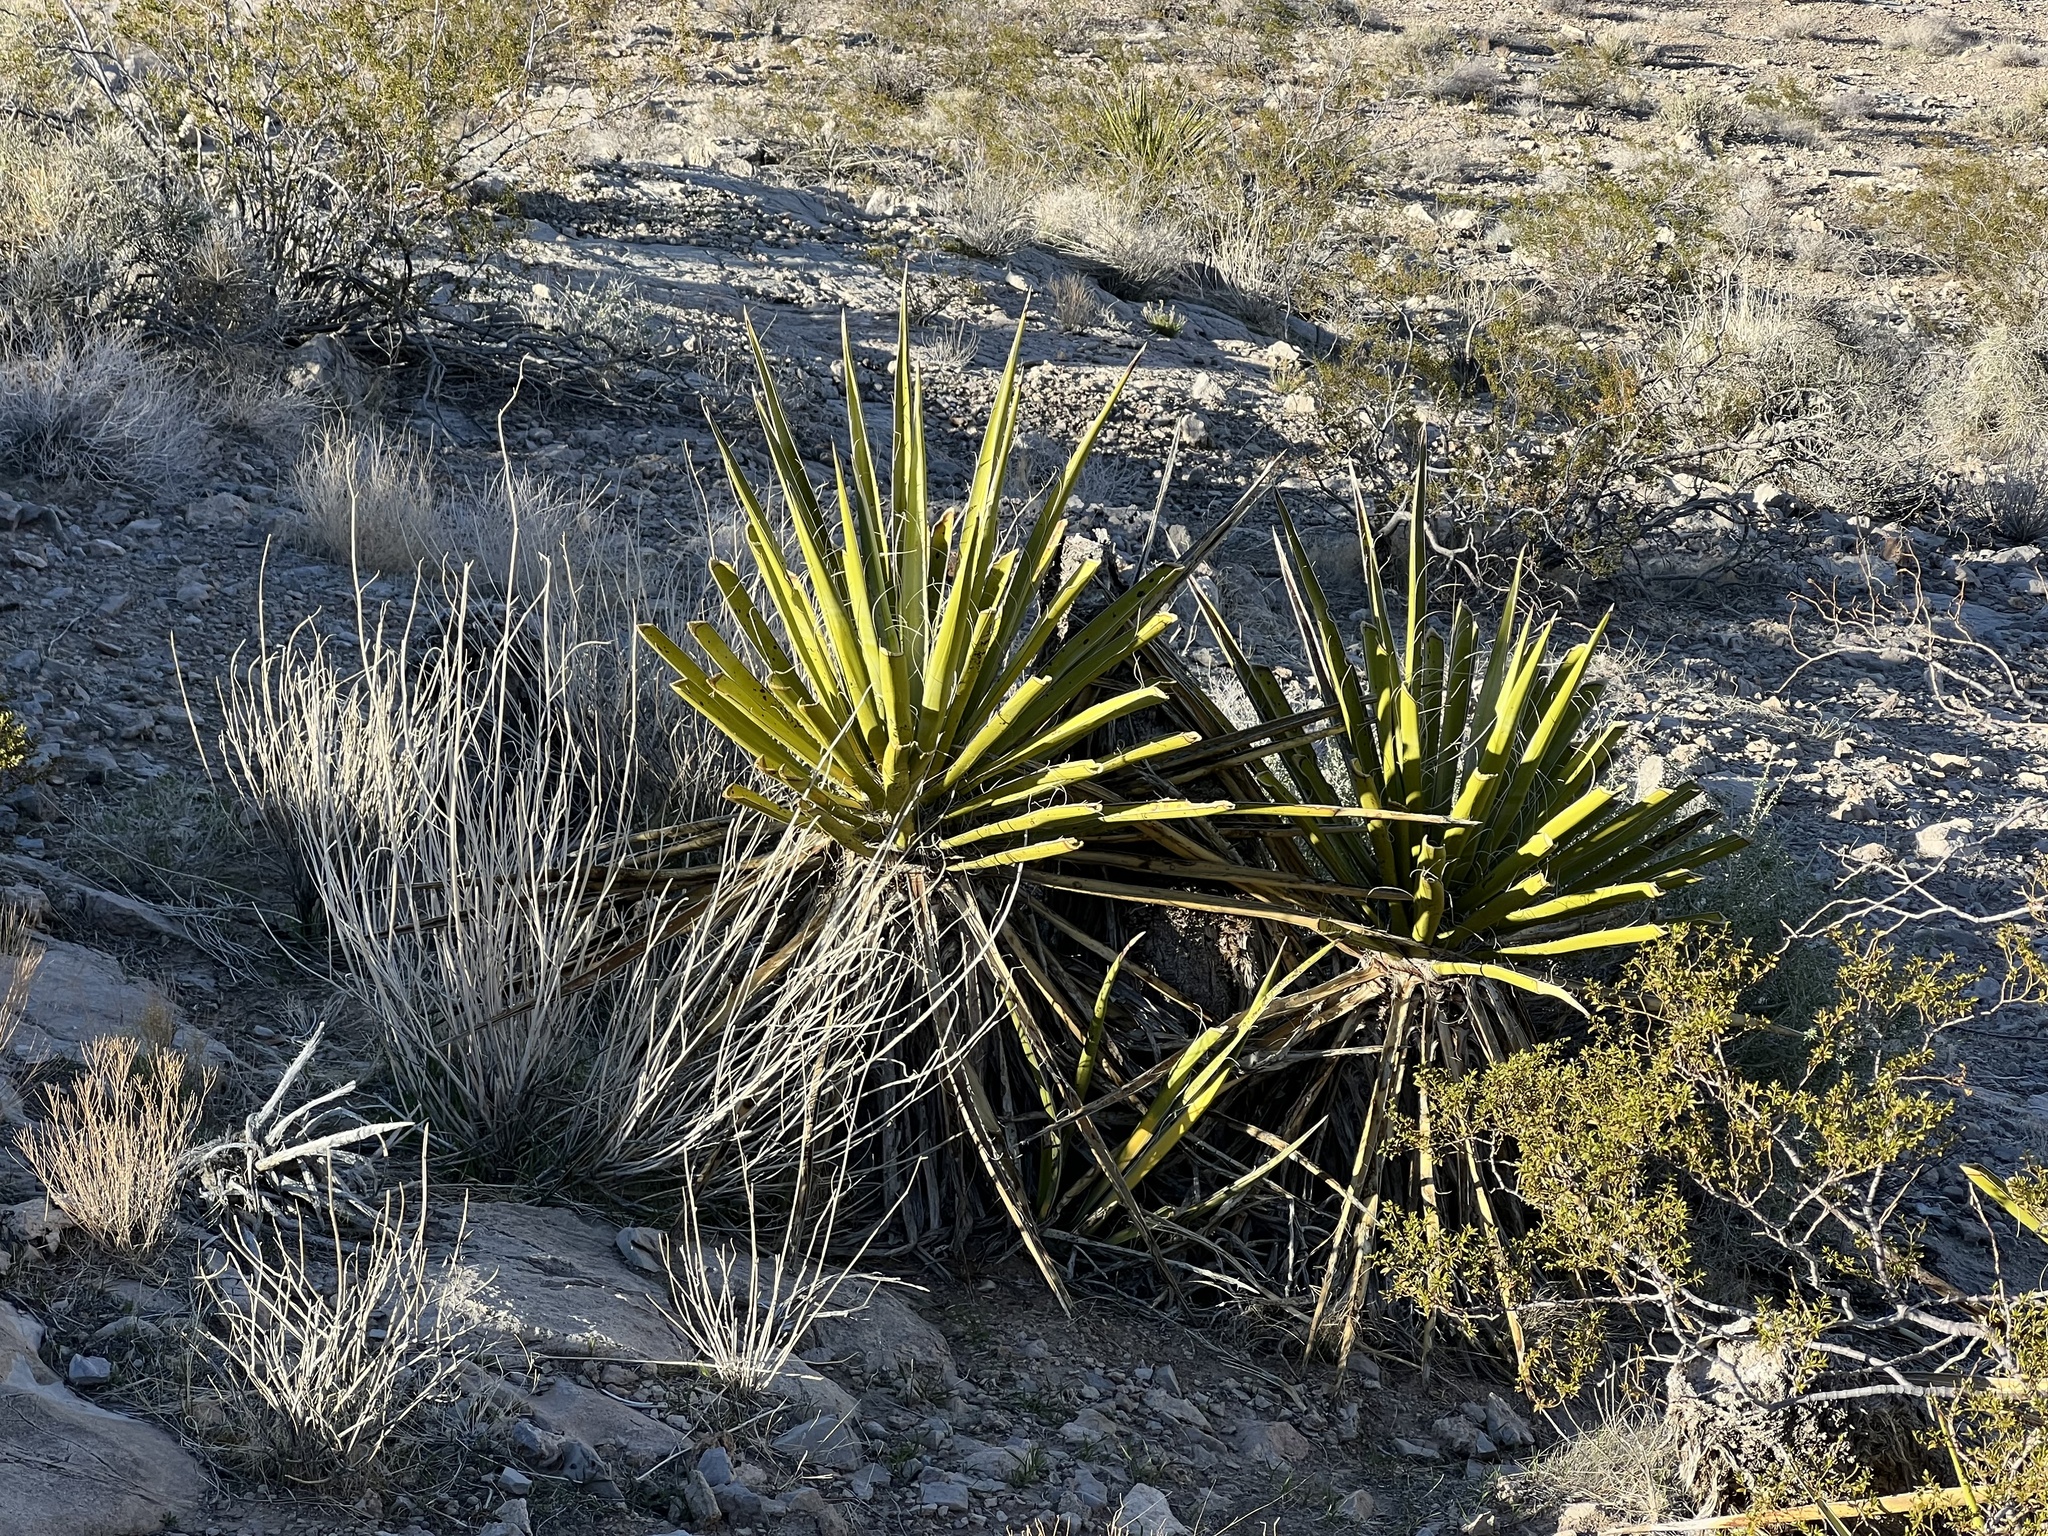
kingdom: Plantae
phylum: Tracheophyta
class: Liliopsida
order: Asparagales
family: Asparagaceae
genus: Yucca
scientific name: Yucca schidigera
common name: Mojave yucca
